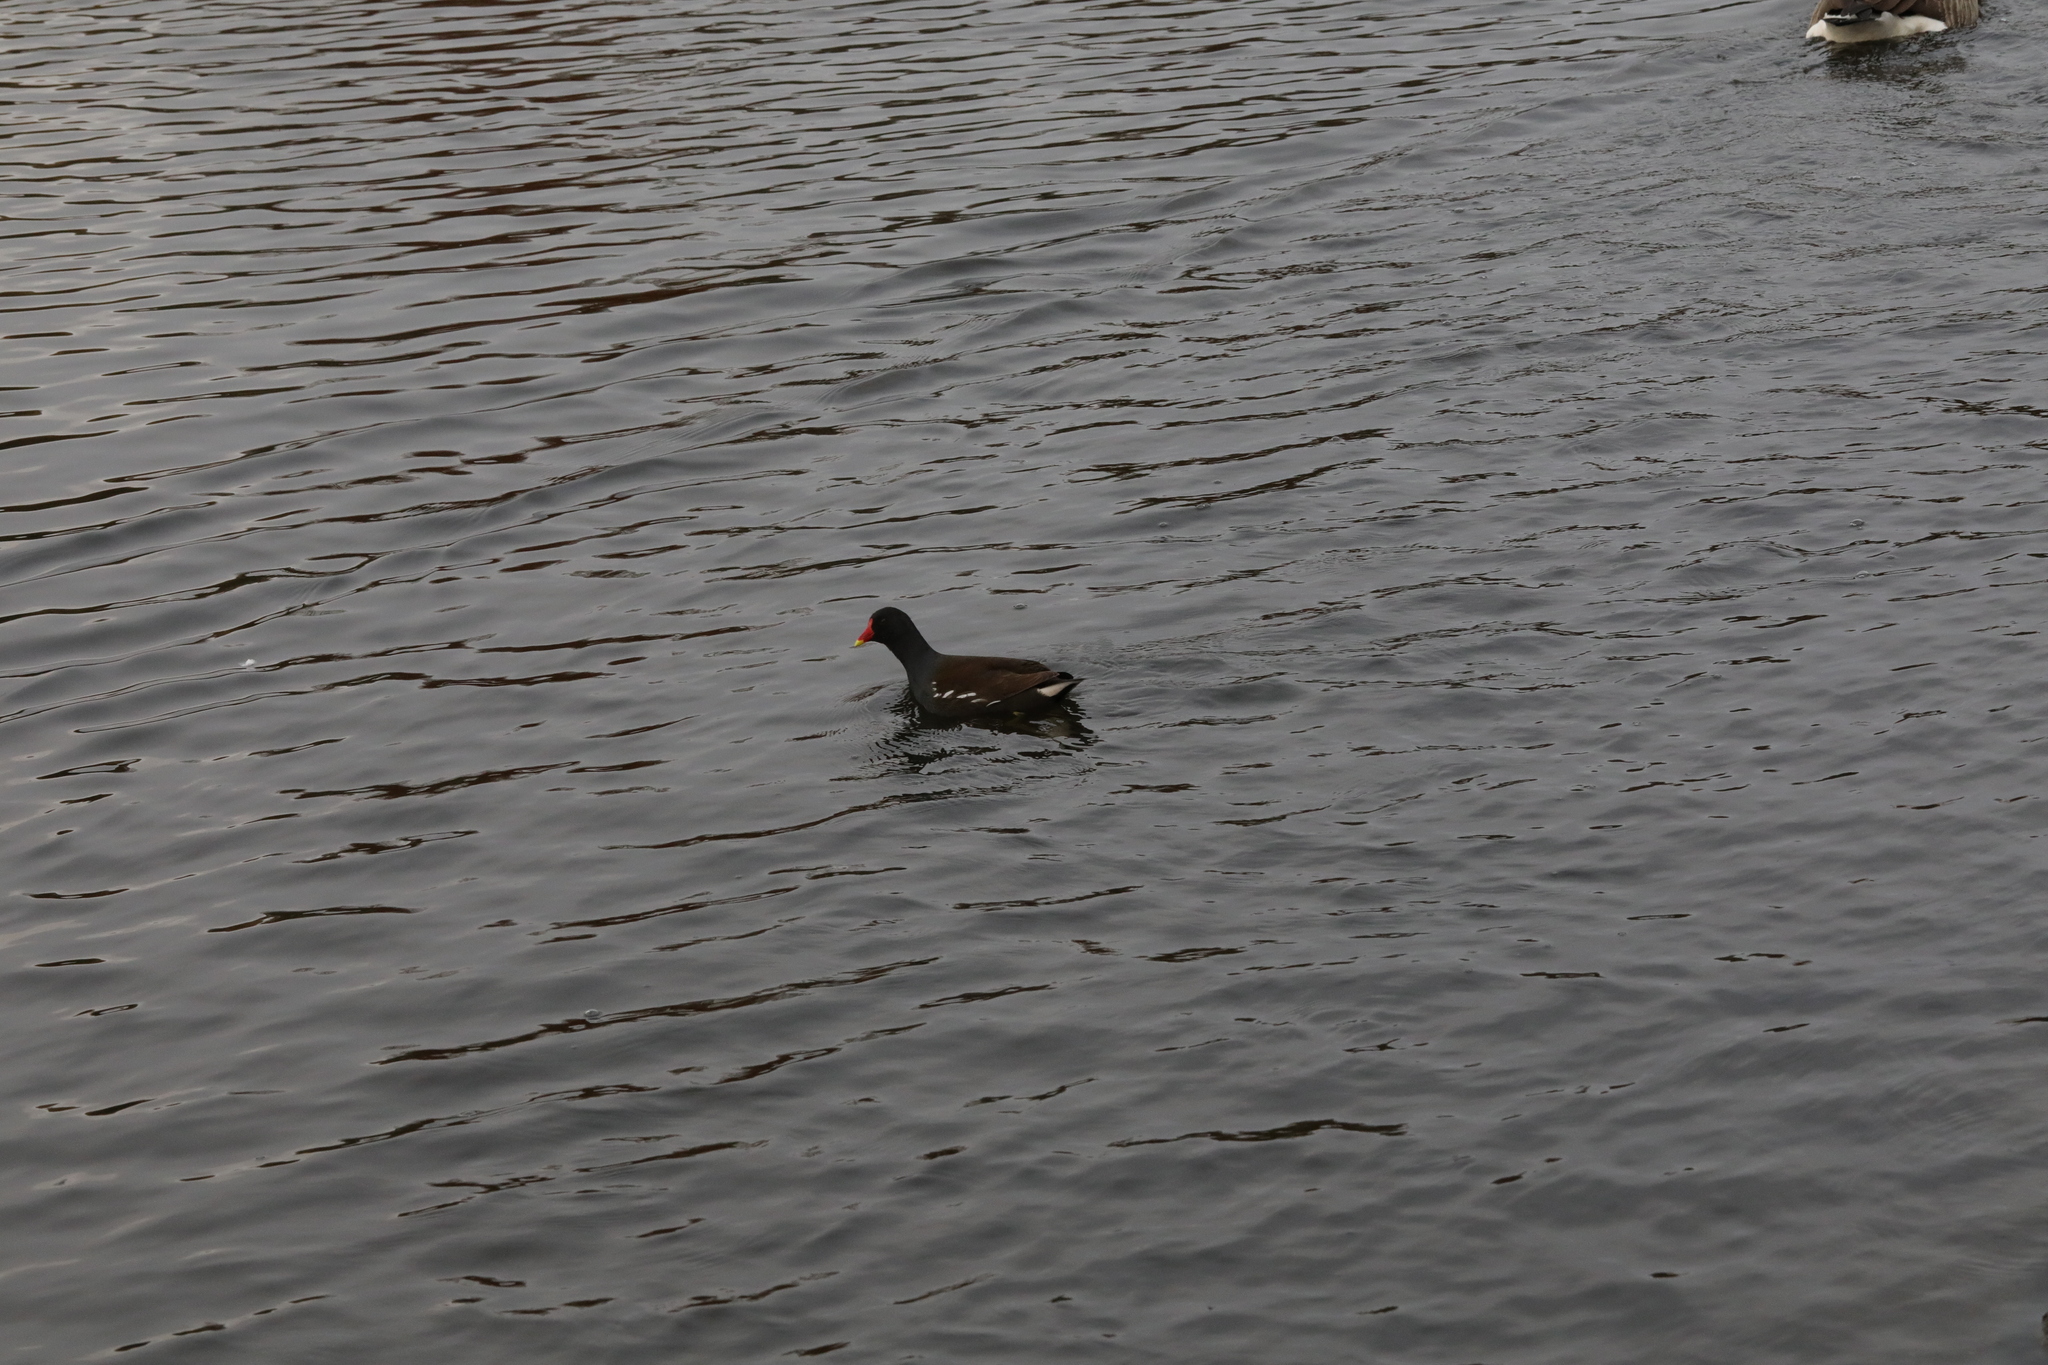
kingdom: Animalia
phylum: Chordata
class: Aves
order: Gruiformes
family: Rallidae
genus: Gallinula
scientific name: Gallinula chloropus
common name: Common moorhen
